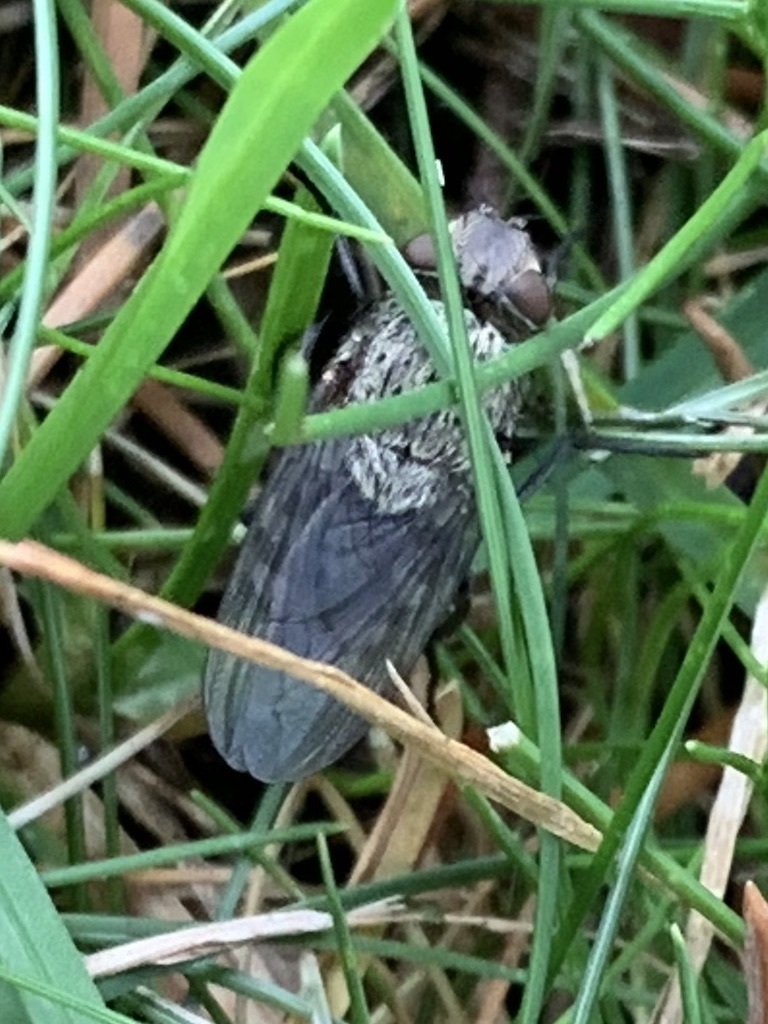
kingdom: Animalia
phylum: Arthropoda
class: Insecta
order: Diptera
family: Polleniidae
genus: Pollenia
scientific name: Pollenia
